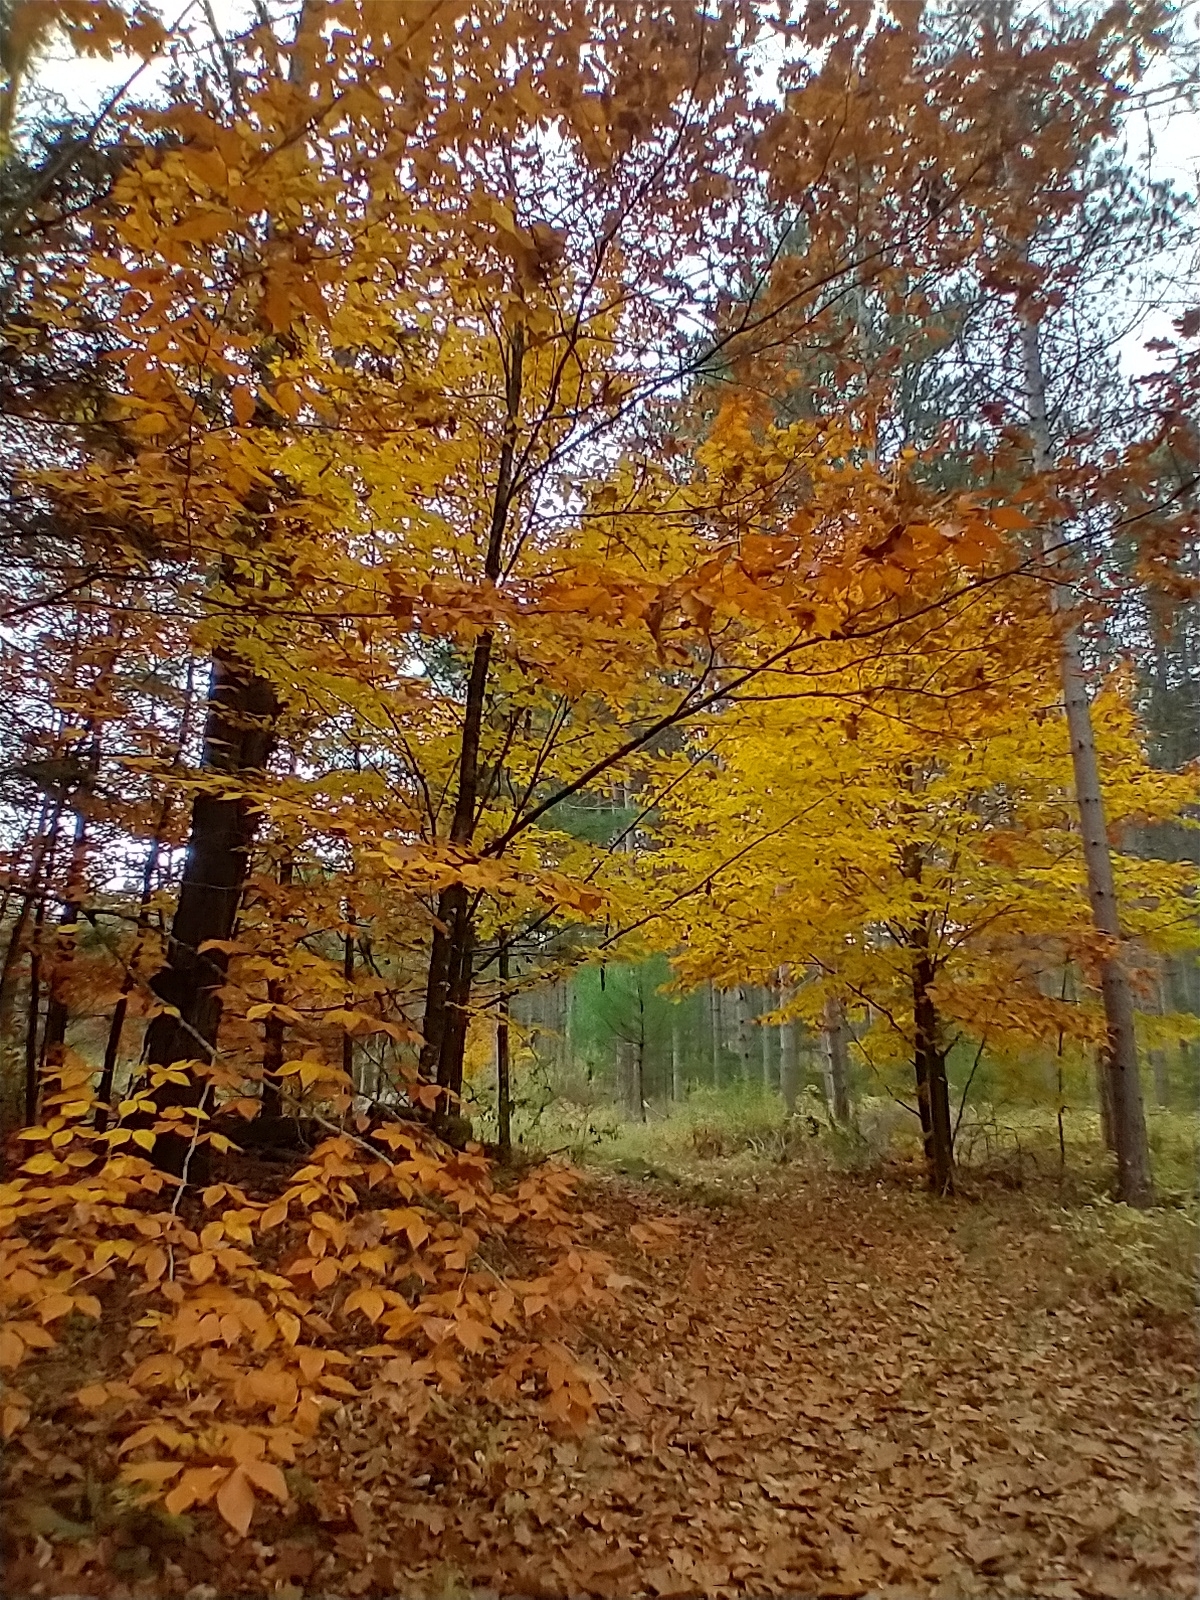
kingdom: Plantae
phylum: Tracheophyta
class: Magnoliopsida
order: Fagales
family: Fagaceae
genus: Fagus
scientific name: Fagus grandifolia
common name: American beech
